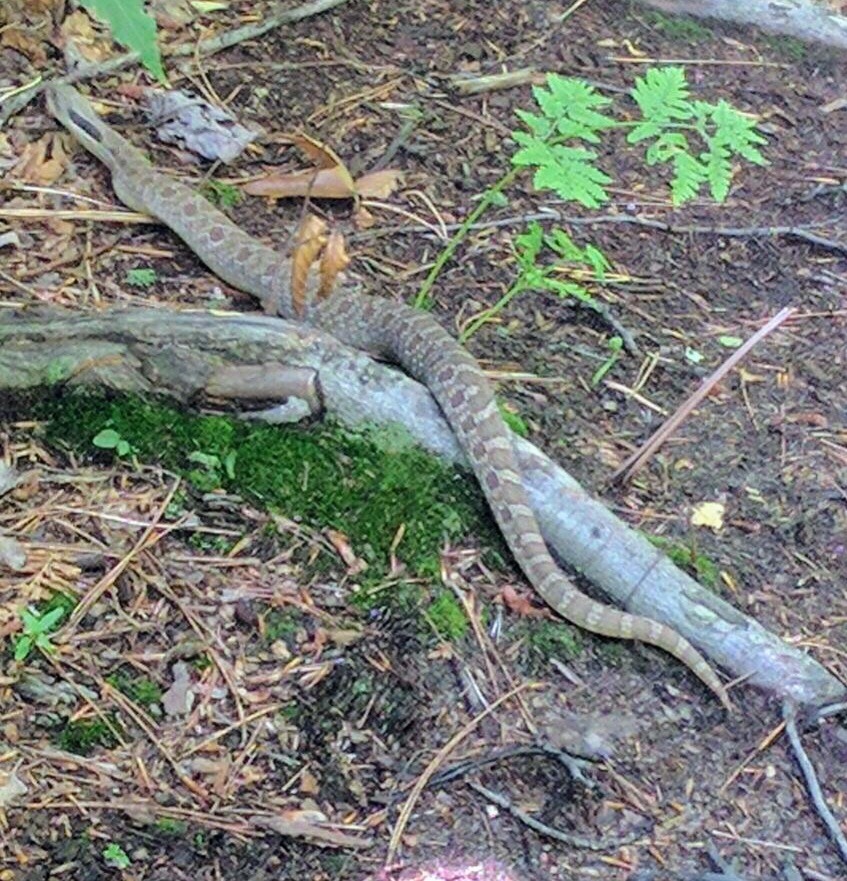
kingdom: Animalia
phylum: Chordata
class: Squamata
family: Colubridae
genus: Heterodon
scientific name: Heterodon platirhinos
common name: Eastern hognose snake
